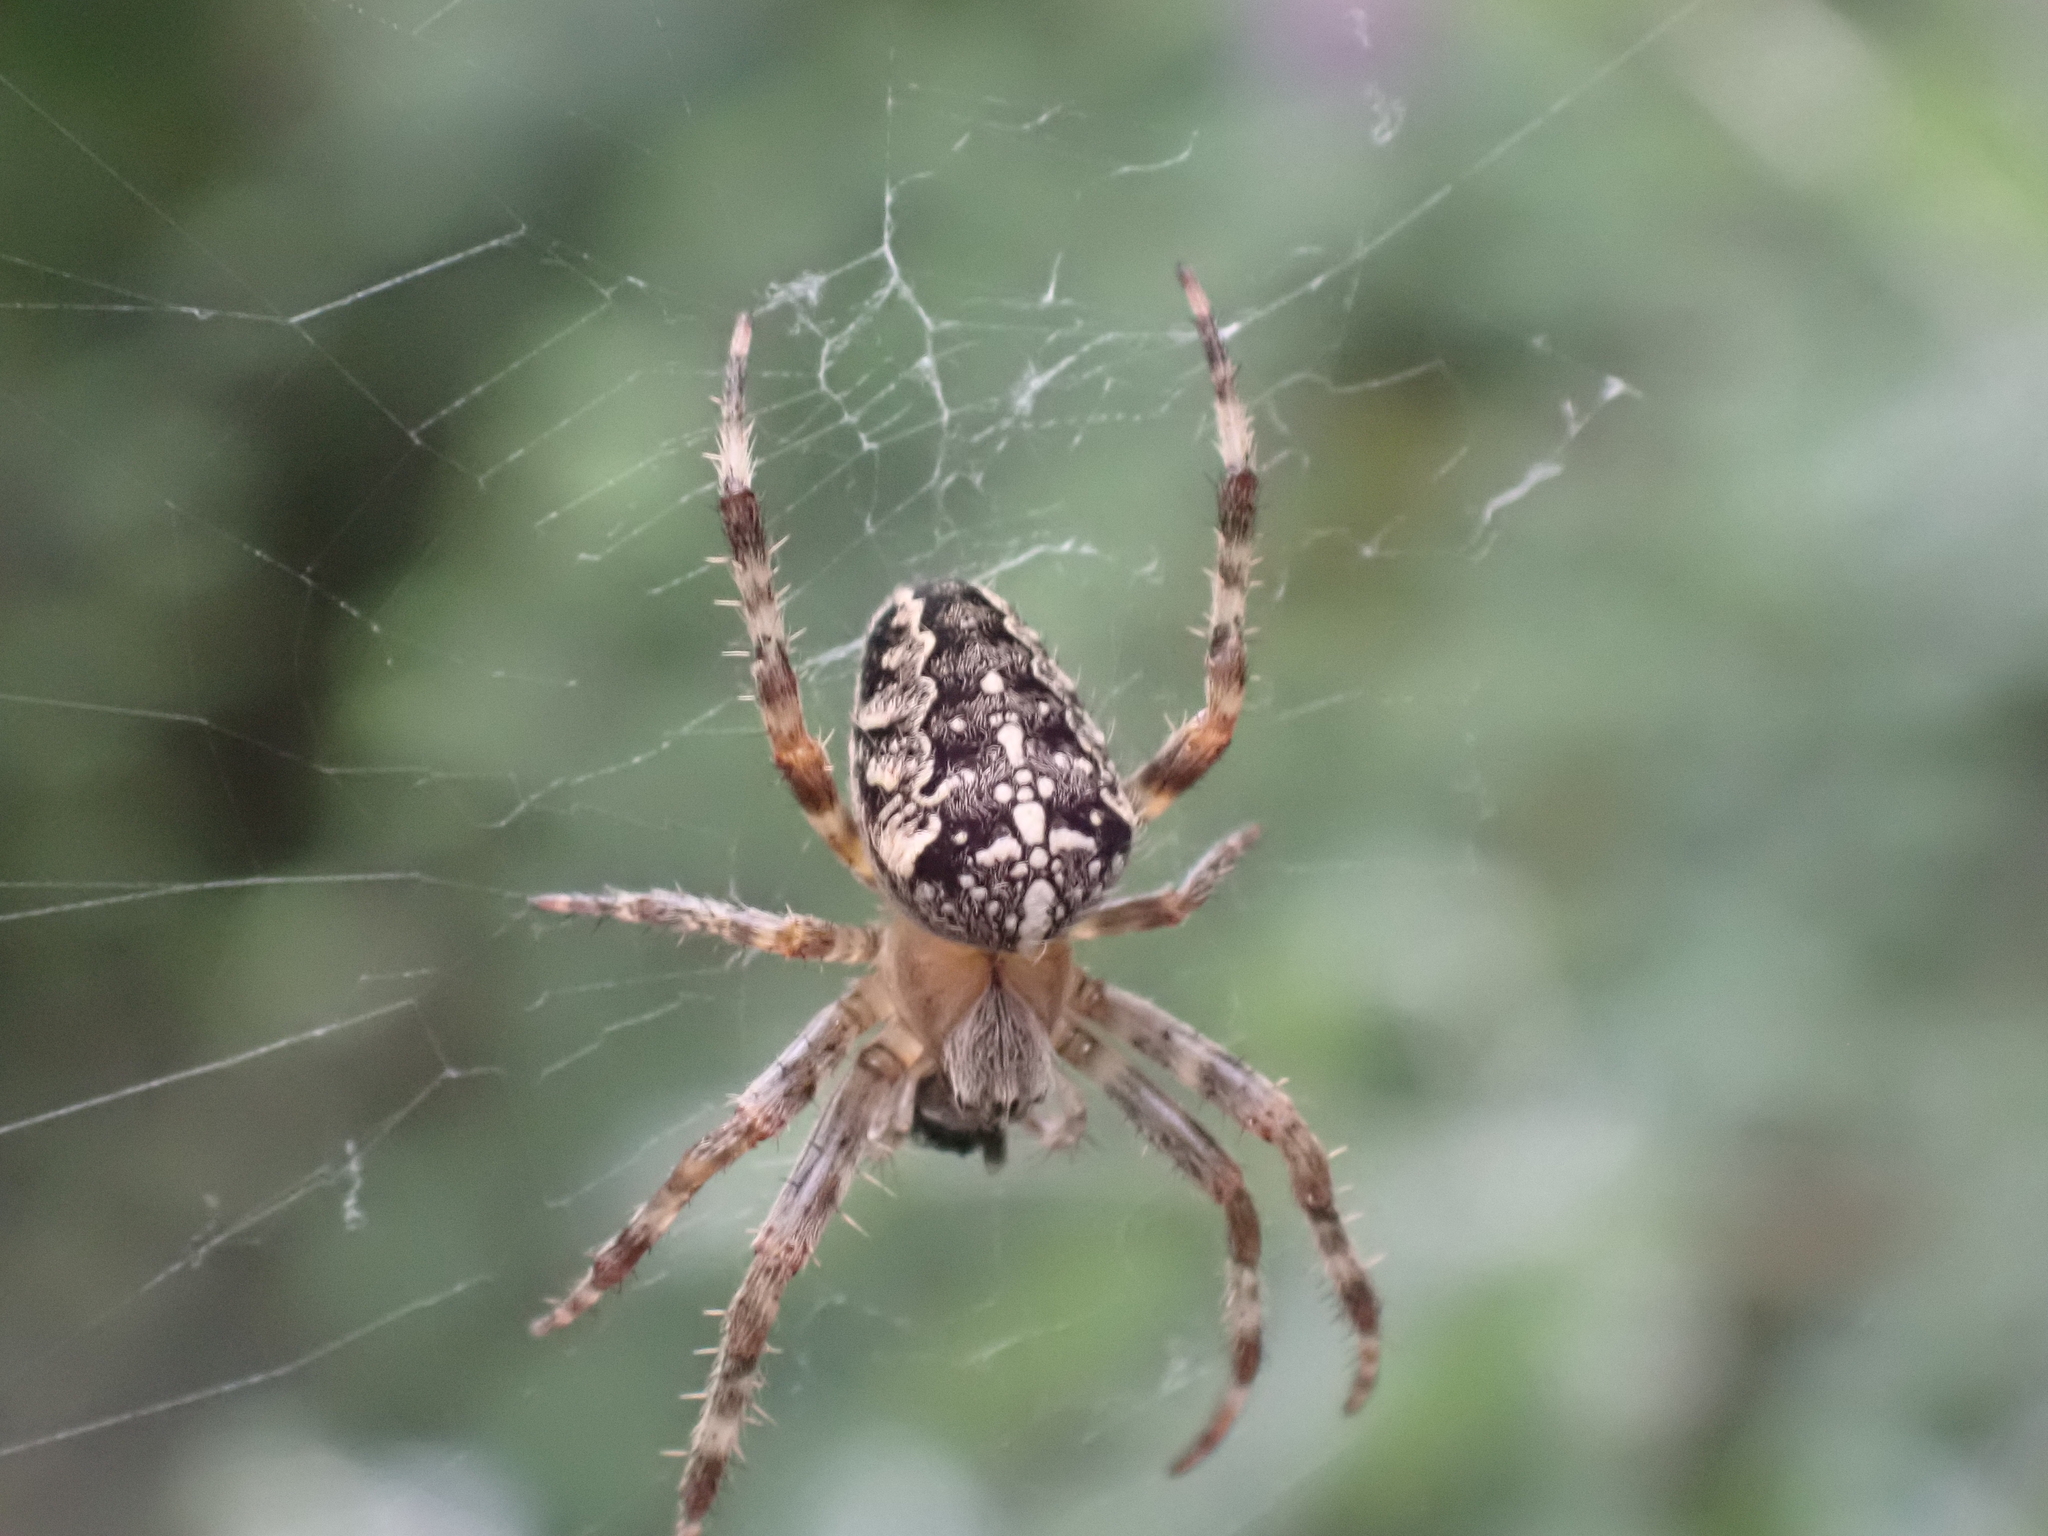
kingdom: Animalia
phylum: Arthropoda
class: Arachnida
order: Araneae
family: Araneidae
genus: Araneus
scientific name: Araneus diadematus
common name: Cross orbweaver
